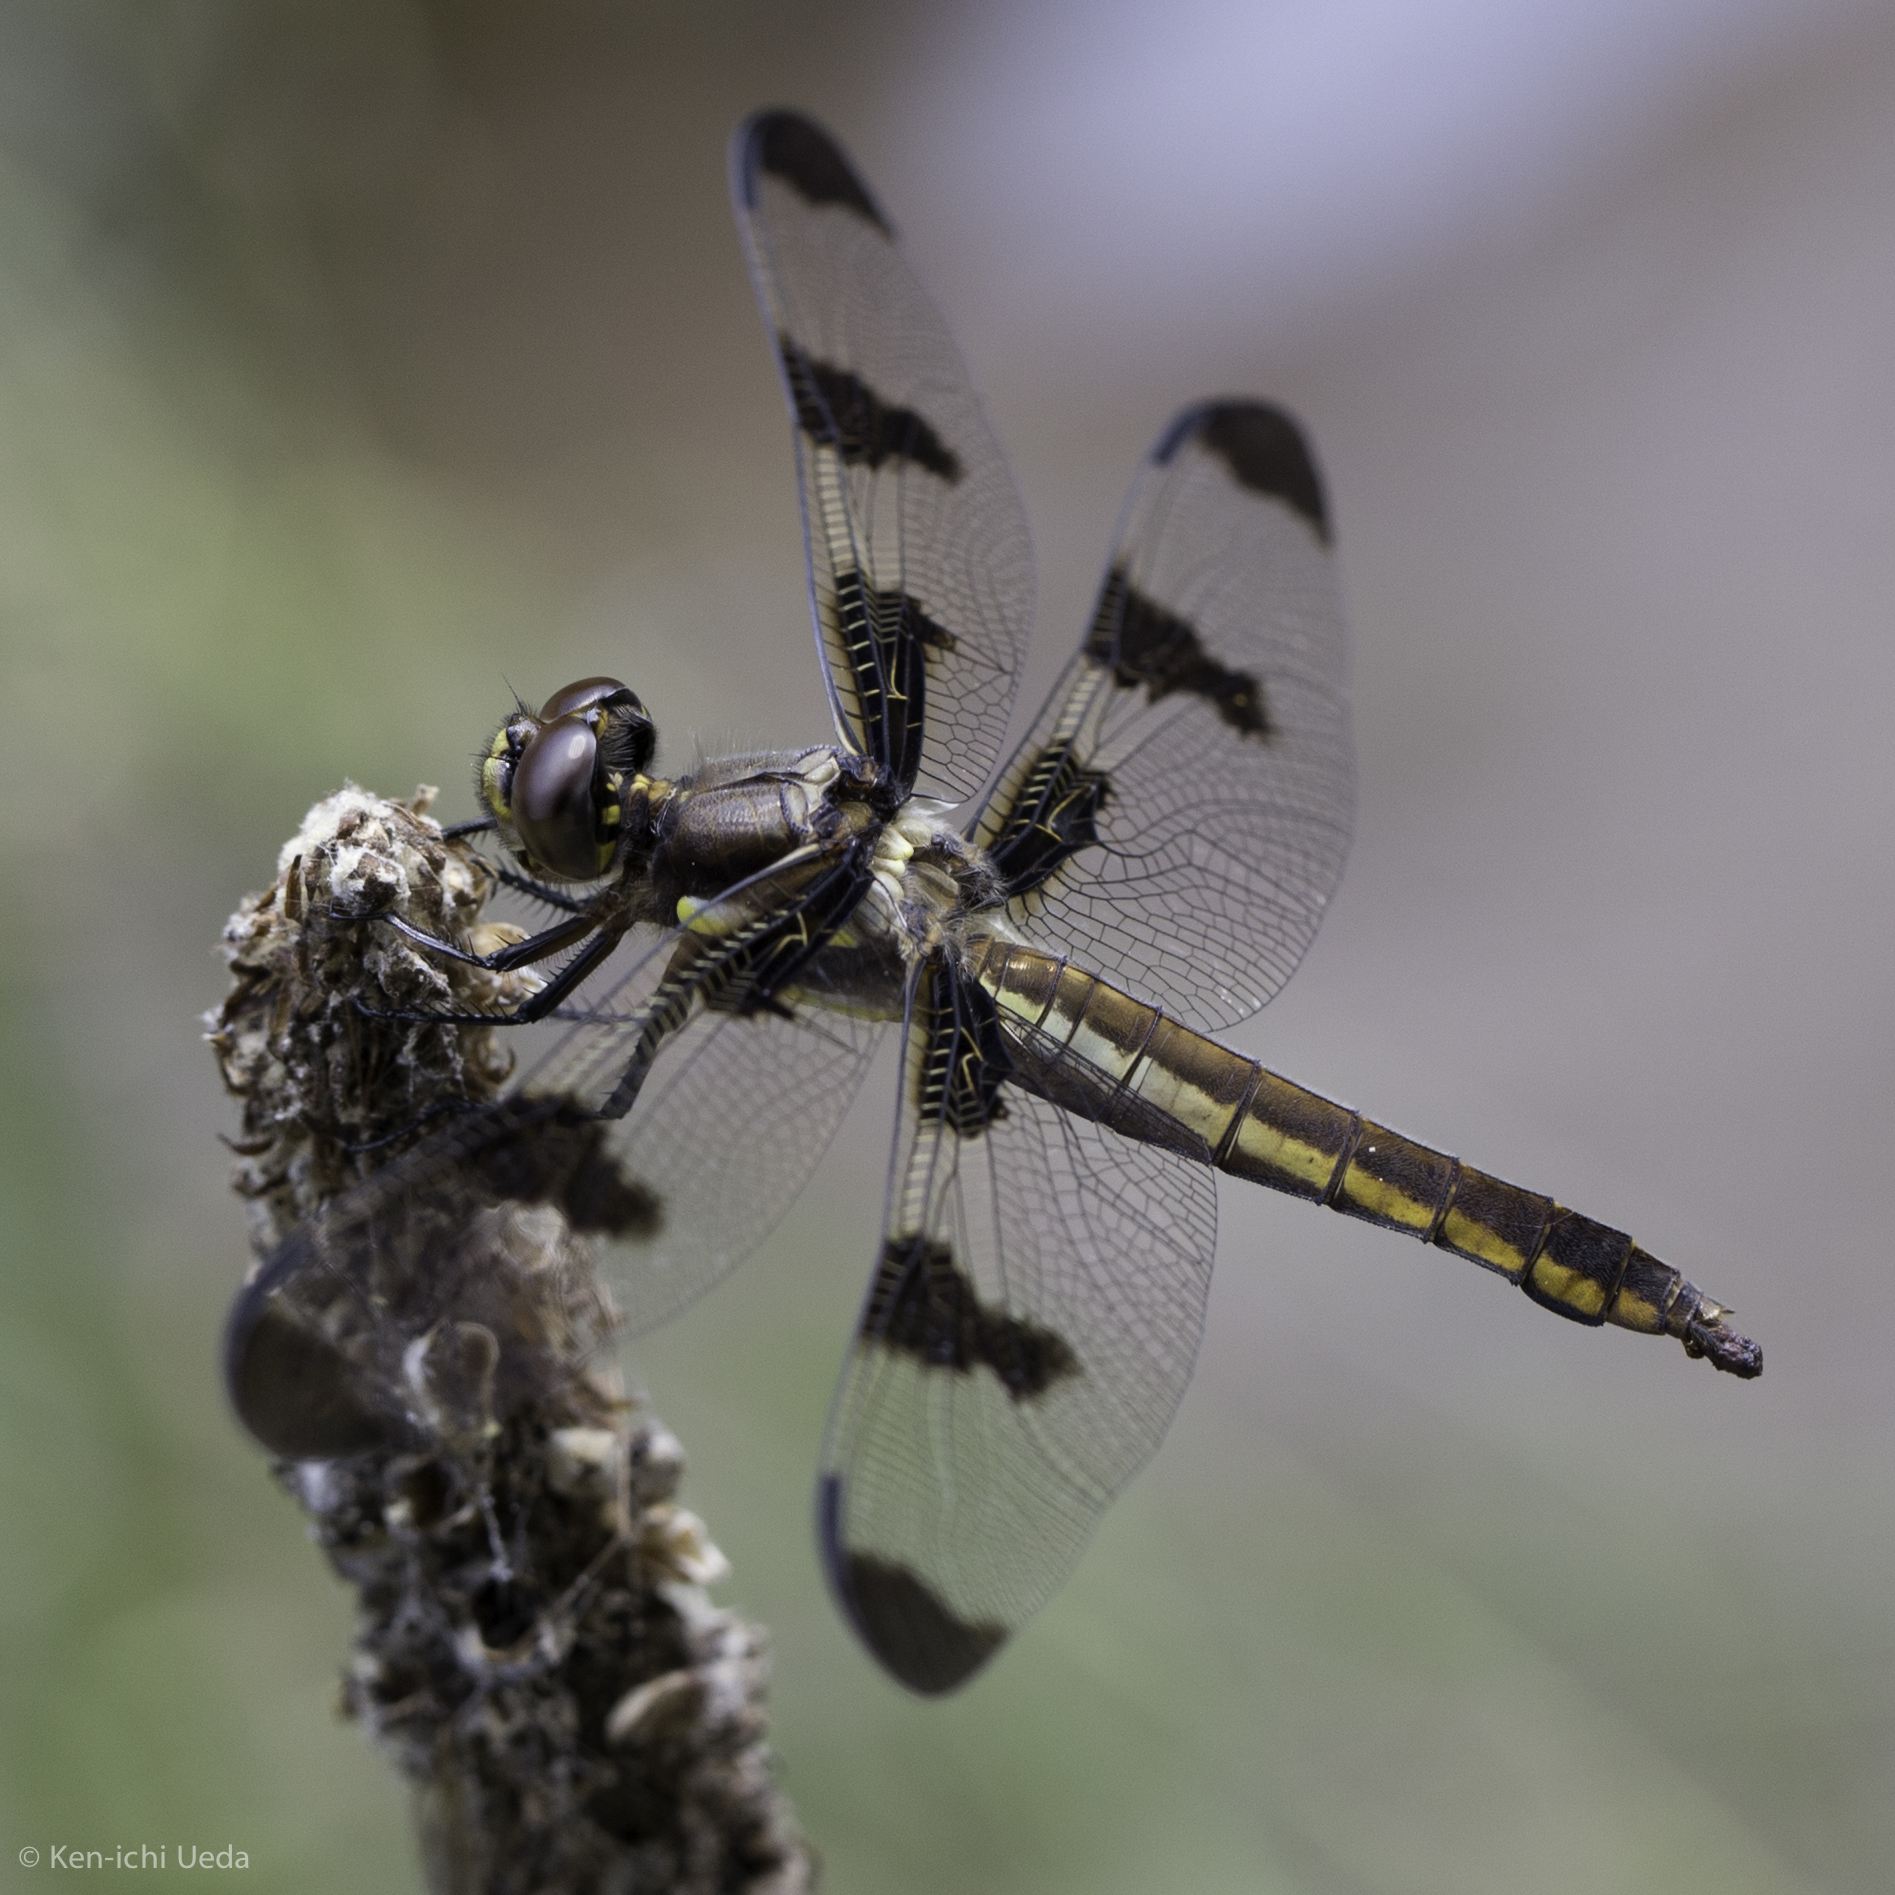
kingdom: Animalia
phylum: Arthropoda
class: Insecta
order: Odonata
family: Libellulidae
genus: Libellula
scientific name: Libellula pulchella
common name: Twelve-spotted skimmer
